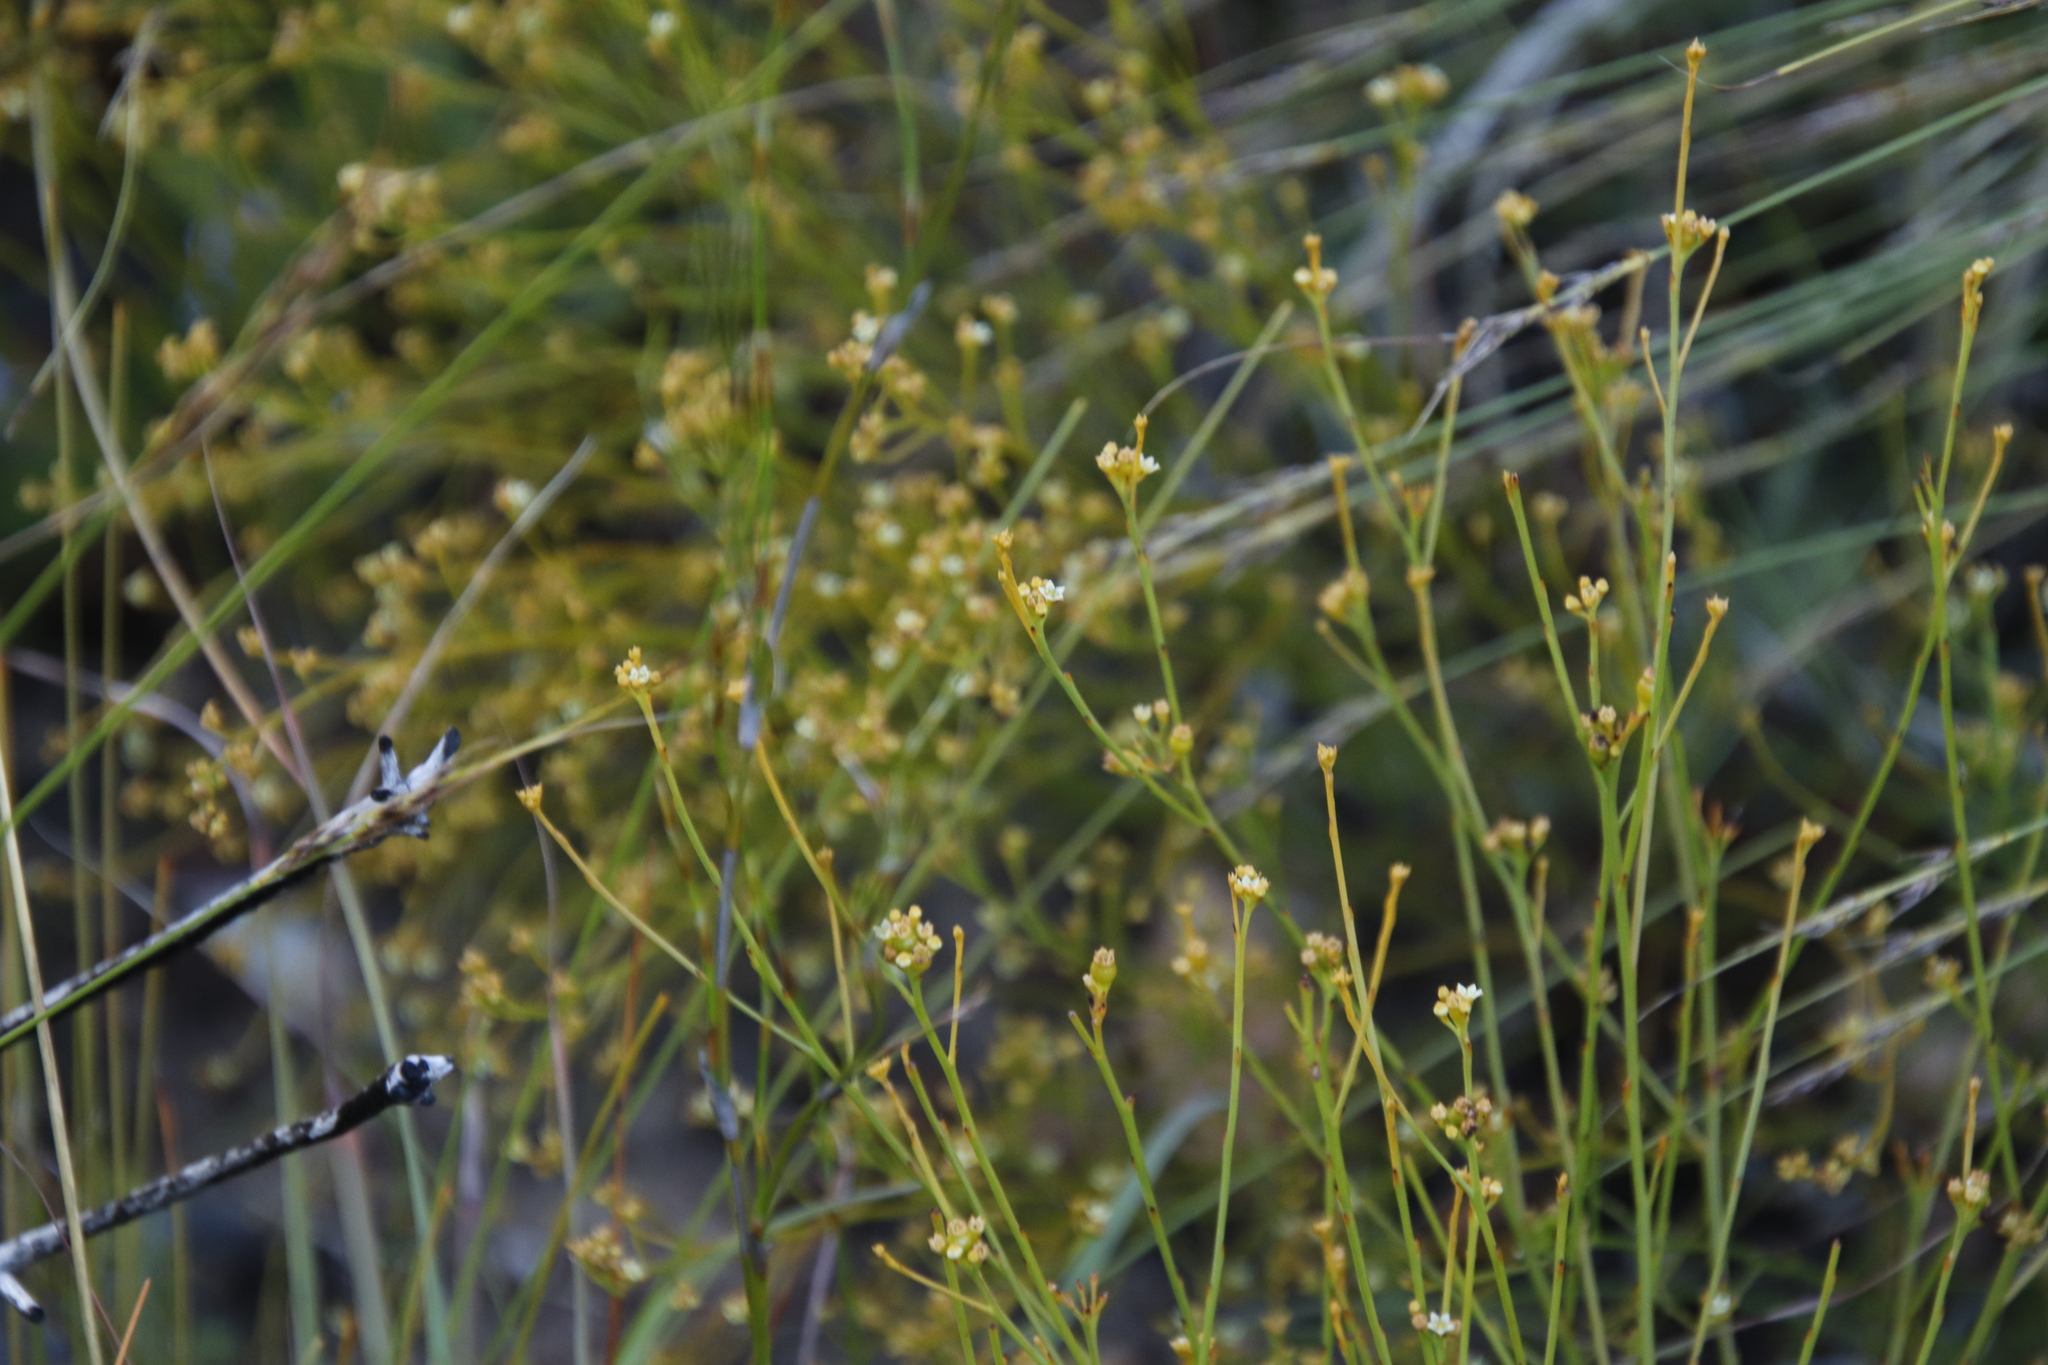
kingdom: Plantae
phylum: Tracheophyta
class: Magnoliopsida
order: Santalales
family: Thesiaceae
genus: Thesium
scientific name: Thesium virgatum
